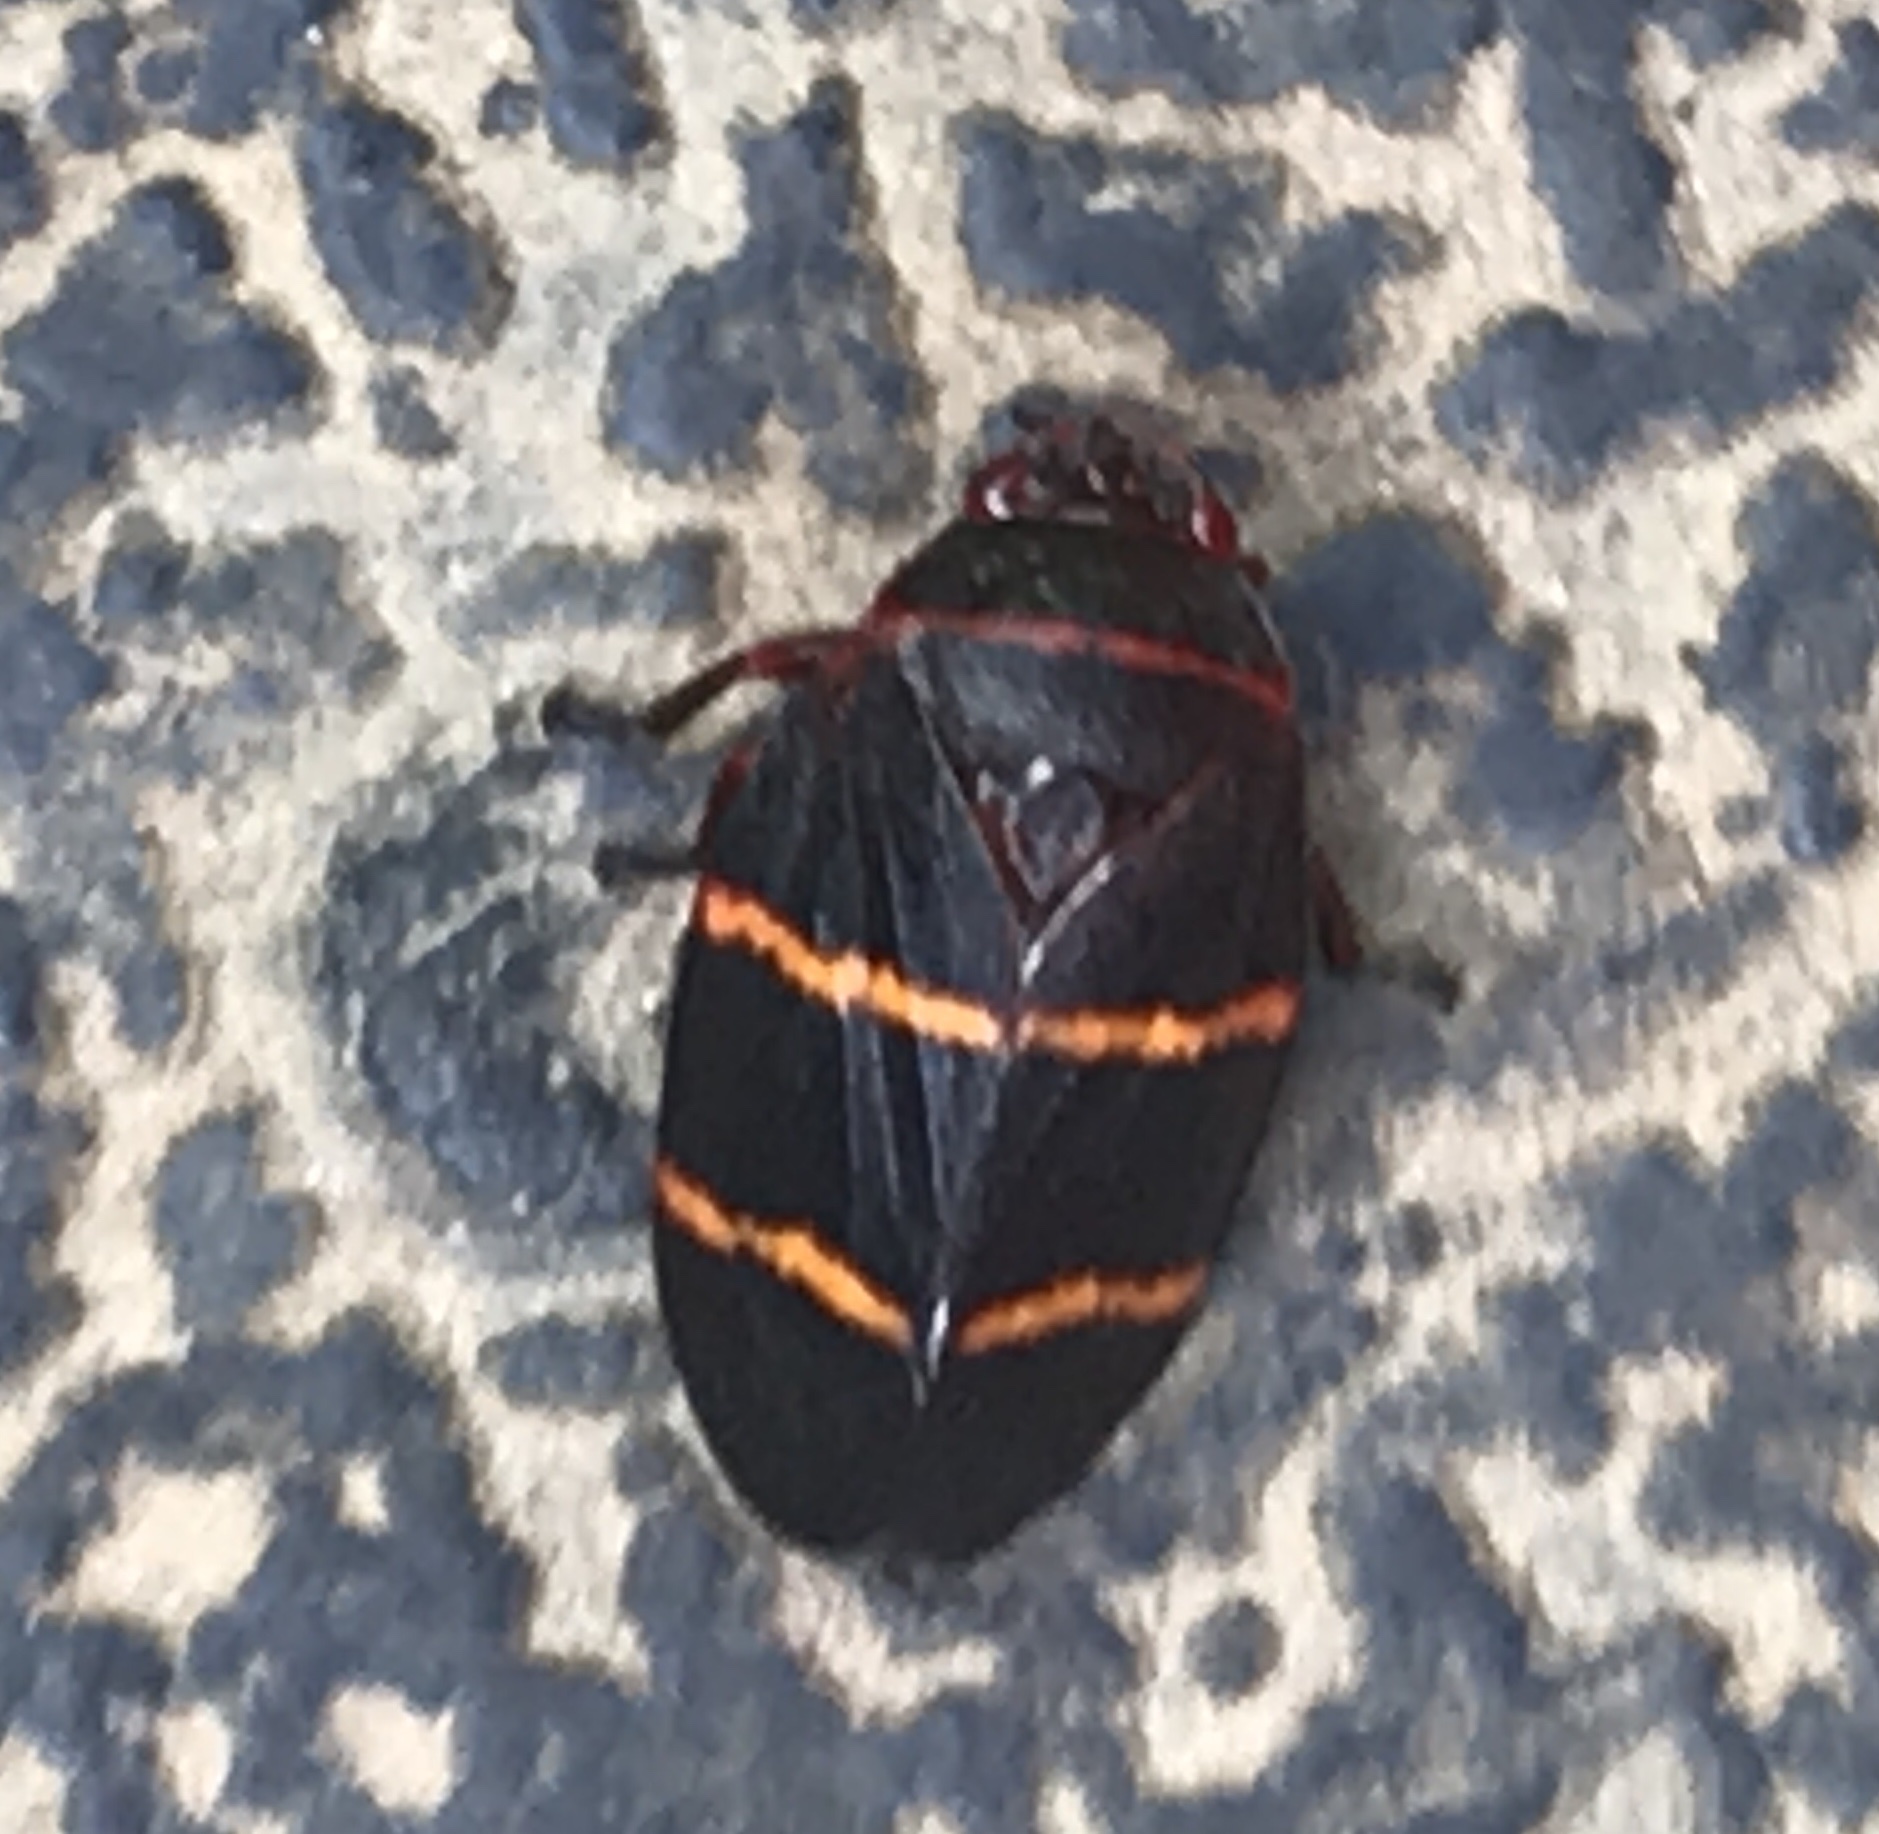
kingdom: Animalia
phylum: Arthropoda
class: Insecta
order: Hemiptera
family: Cercopidae
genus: Prosapia
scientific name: Prosapia bicincta
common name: Twolined spittlebug
